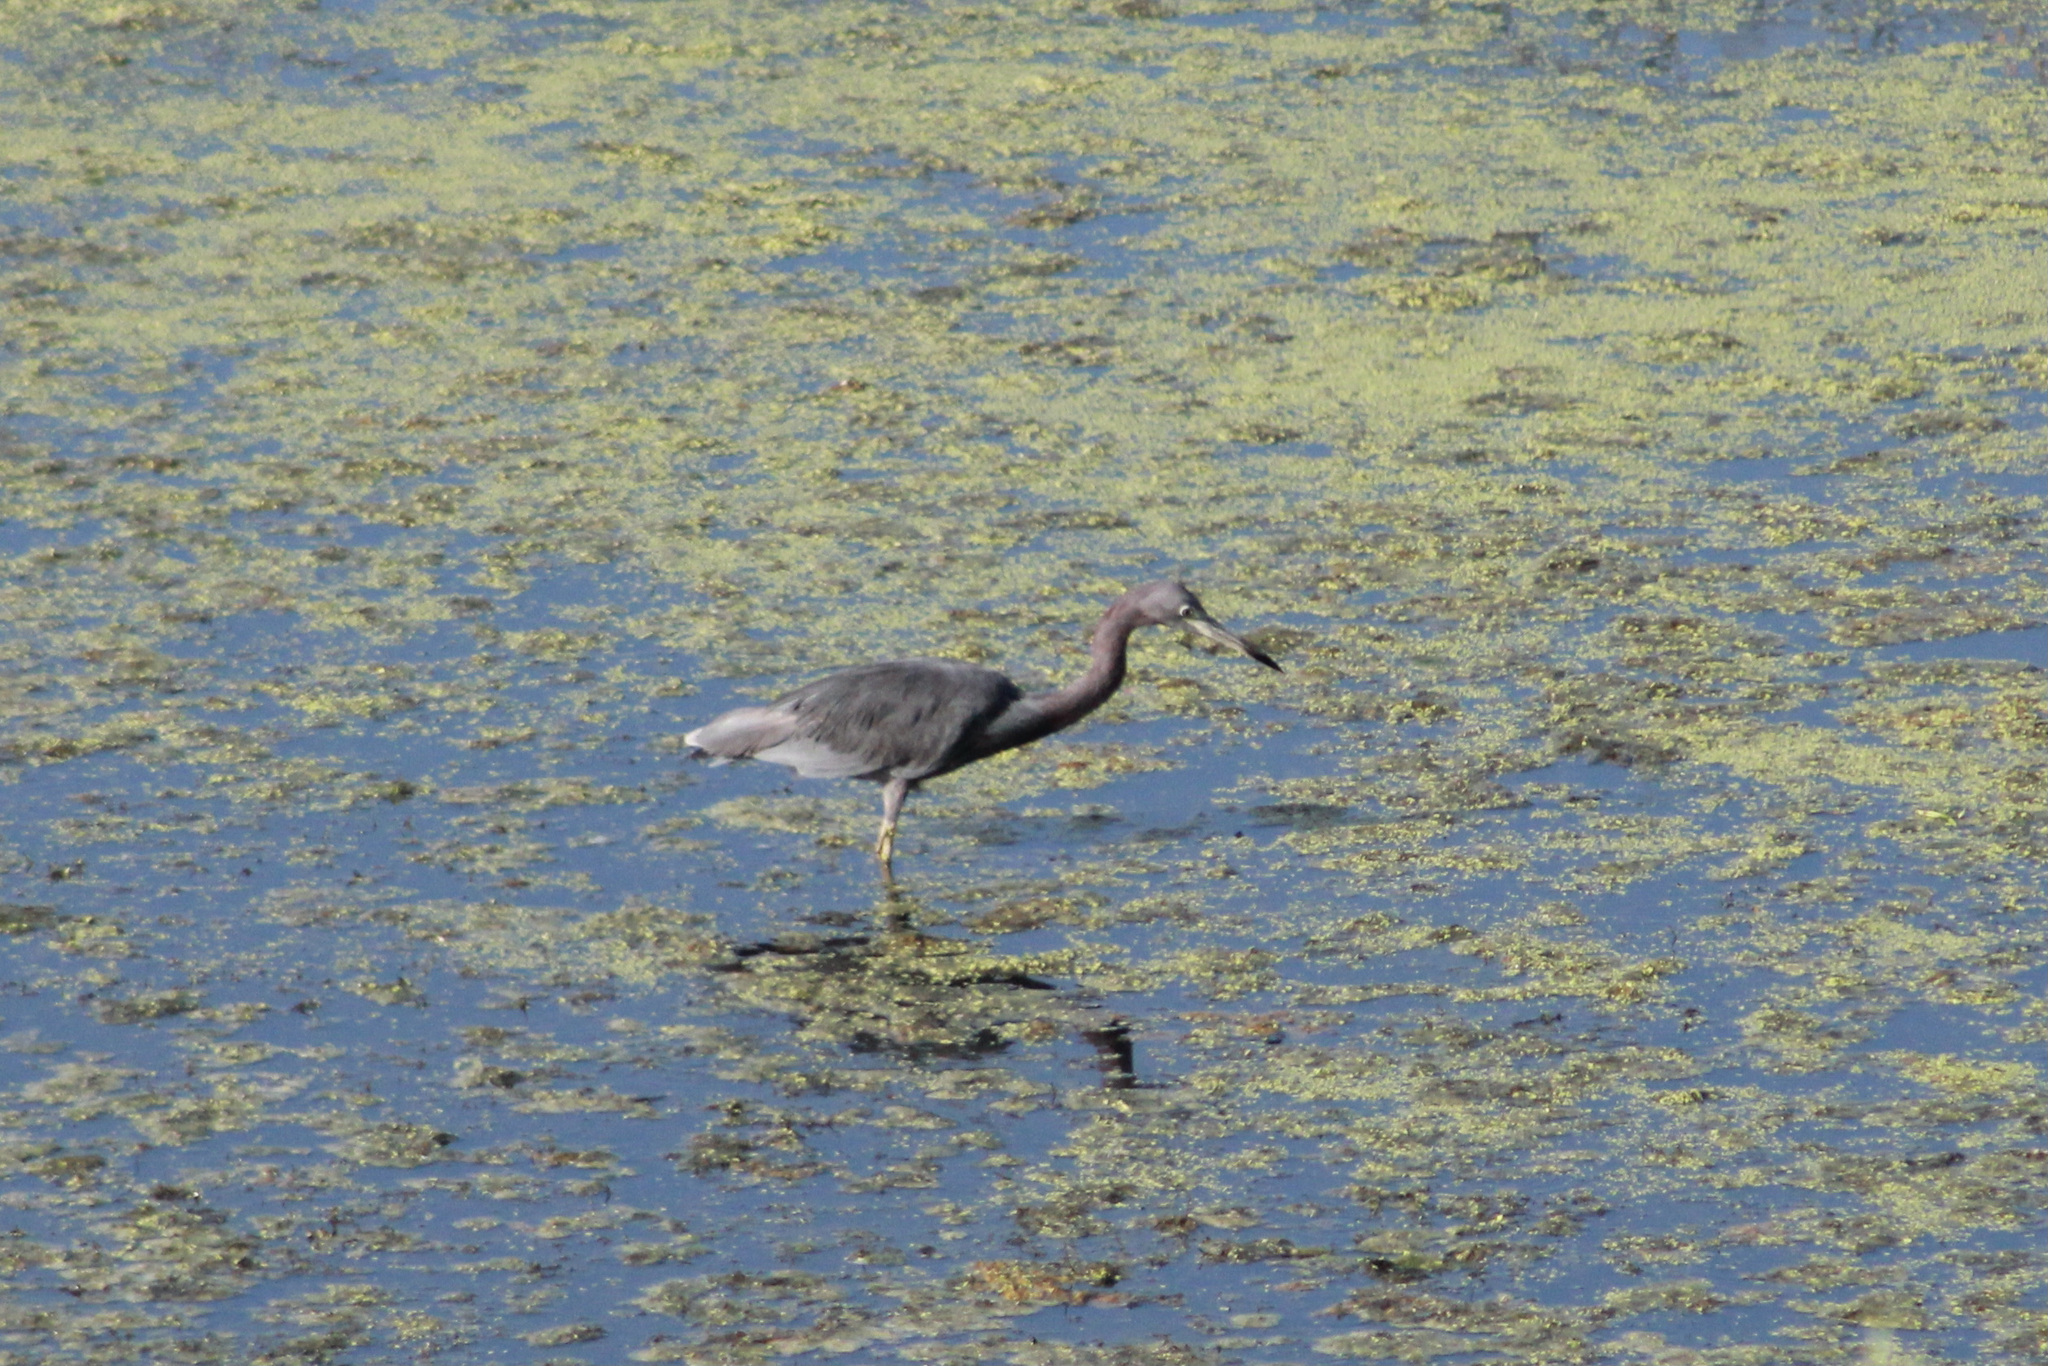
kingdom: Animalia
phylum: Chordata
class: Aves
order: Pelecaniformes
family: Ardeidae
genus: Egretta
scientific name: Egretta caerulea
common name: Little blue heron
